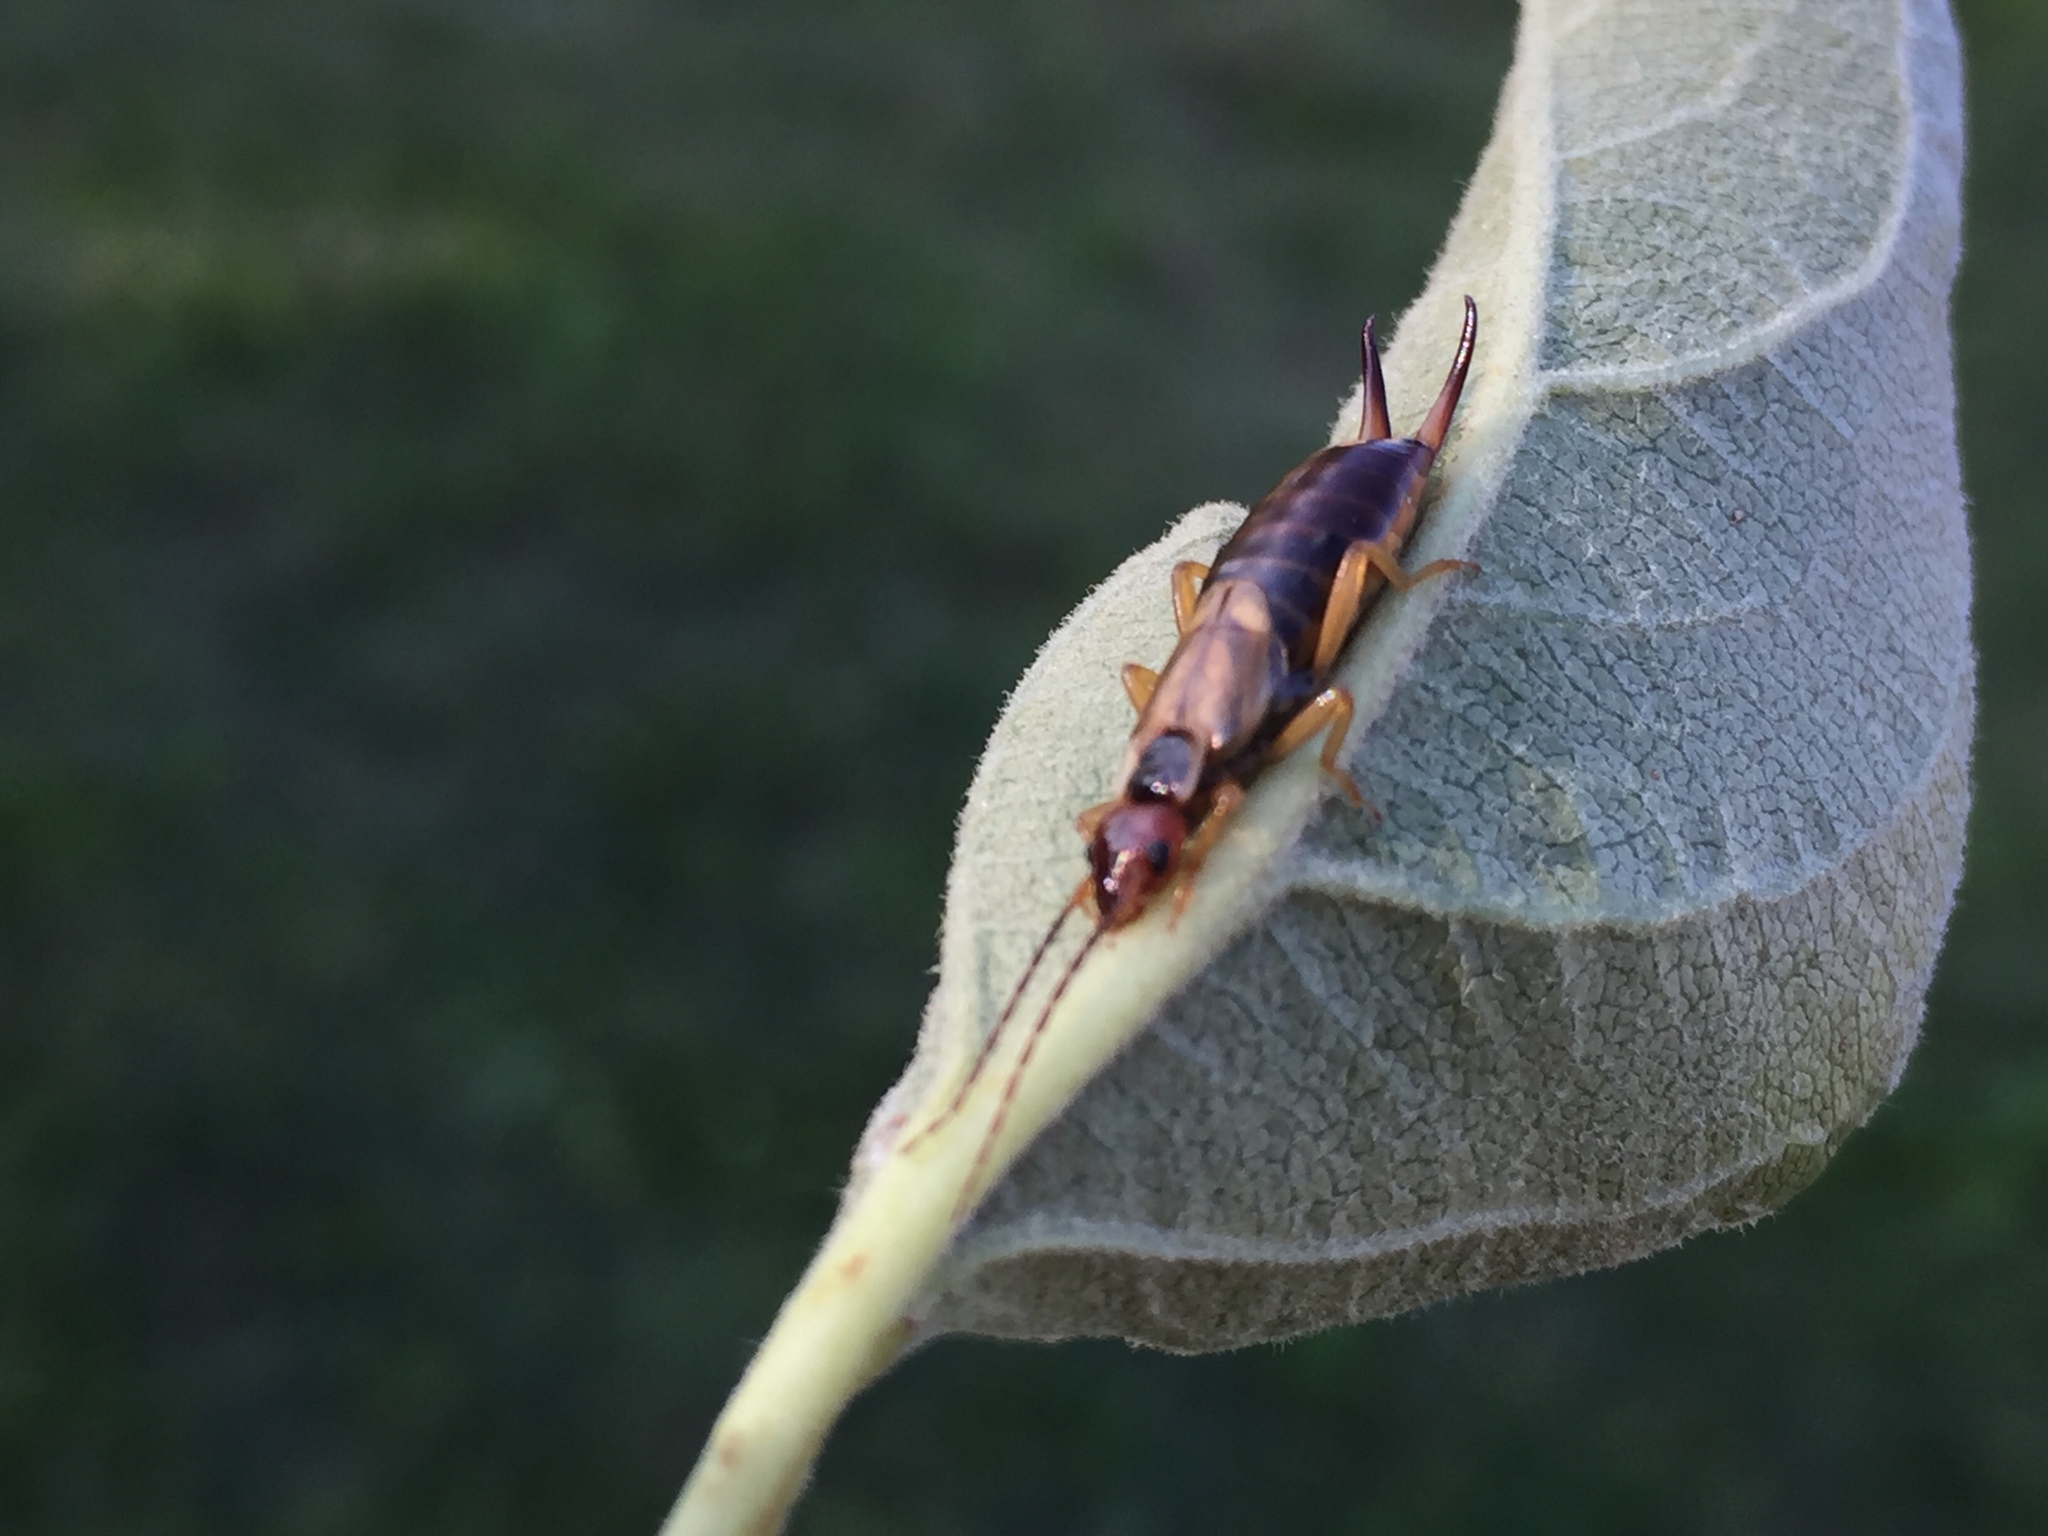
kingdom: Animalia
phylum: Arthropoda
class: Insecta
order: Dermaptera
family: Forficulidae
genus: Forficula
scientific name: Forficula
